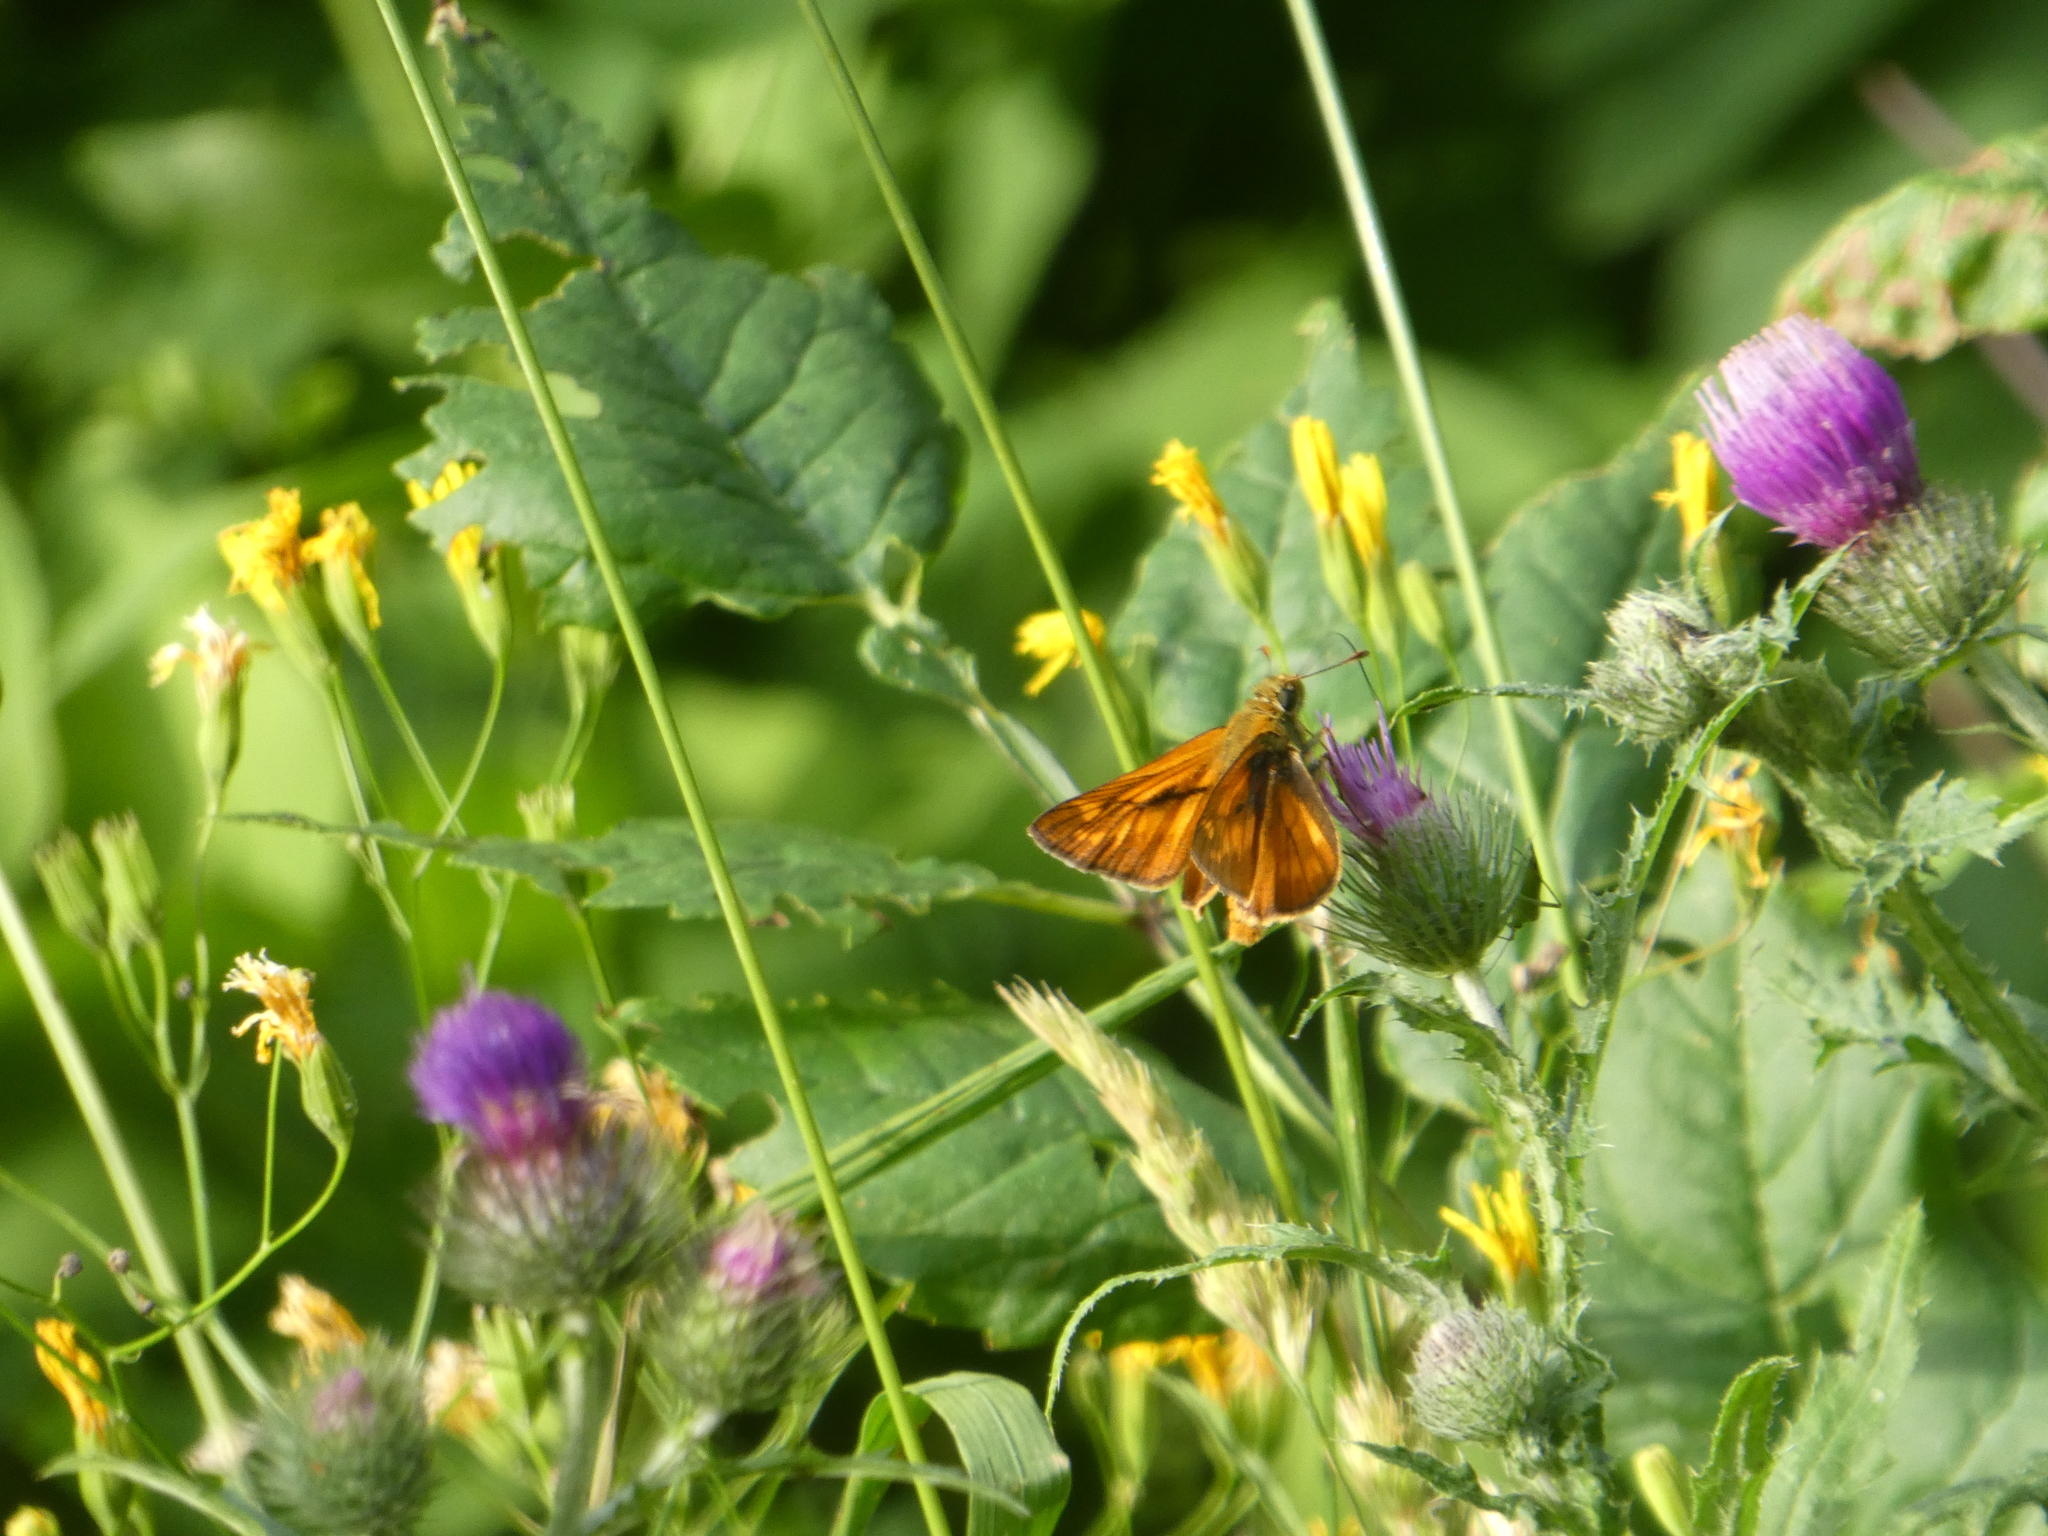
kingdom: Animalia
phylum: Arthropoda
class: Insecta
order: Lepidoptera
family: Hesperiidae
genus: Ochlodes
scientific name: Ochlodes venata
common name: Large skipper
